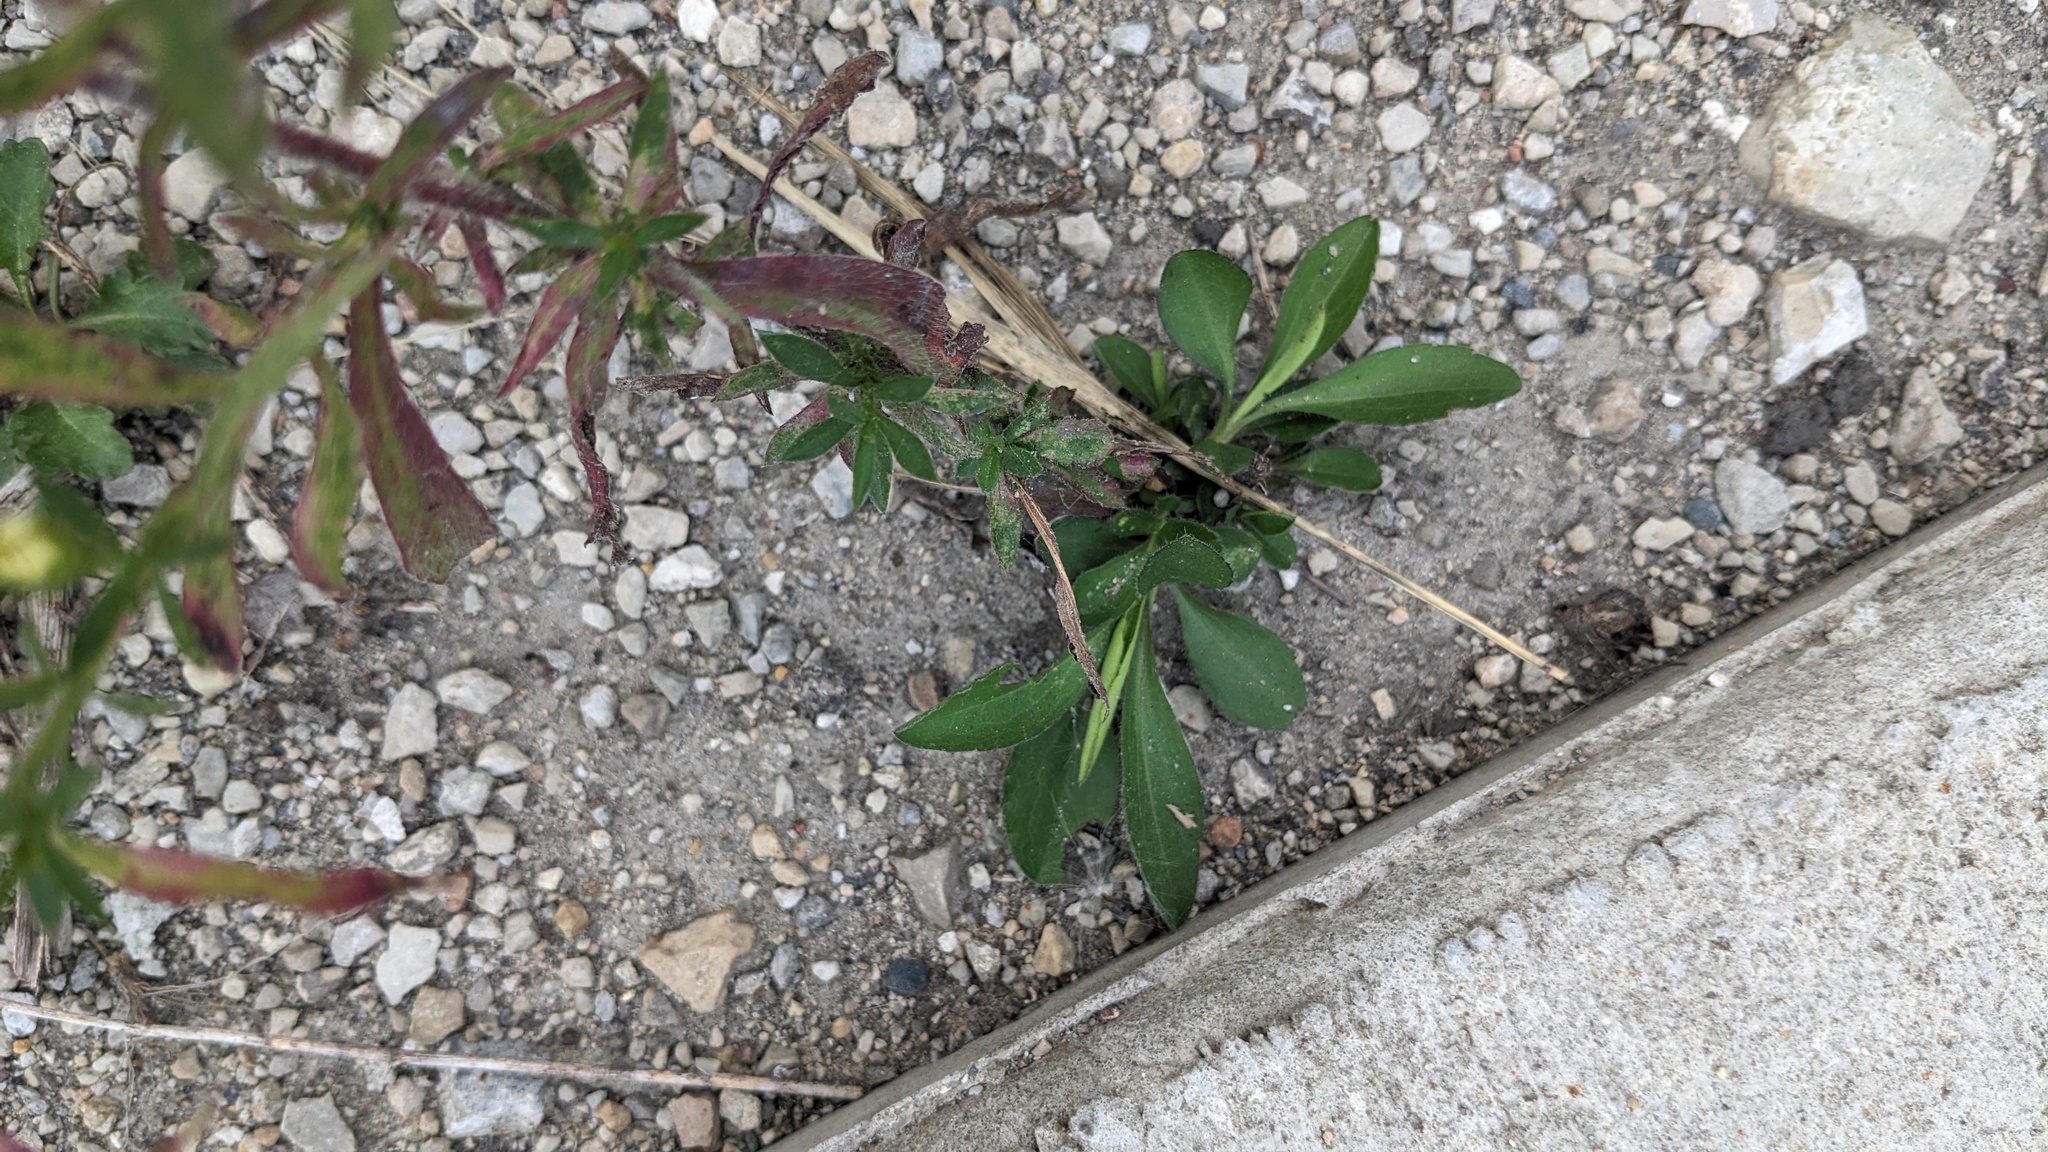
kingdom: Plantae
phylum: Tracheophyta
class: Magnoliopsida
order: Asterales
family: Asteraceae
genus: Symphyotrichum
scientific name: Symphyotrichum pilosum
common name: Awl aster
